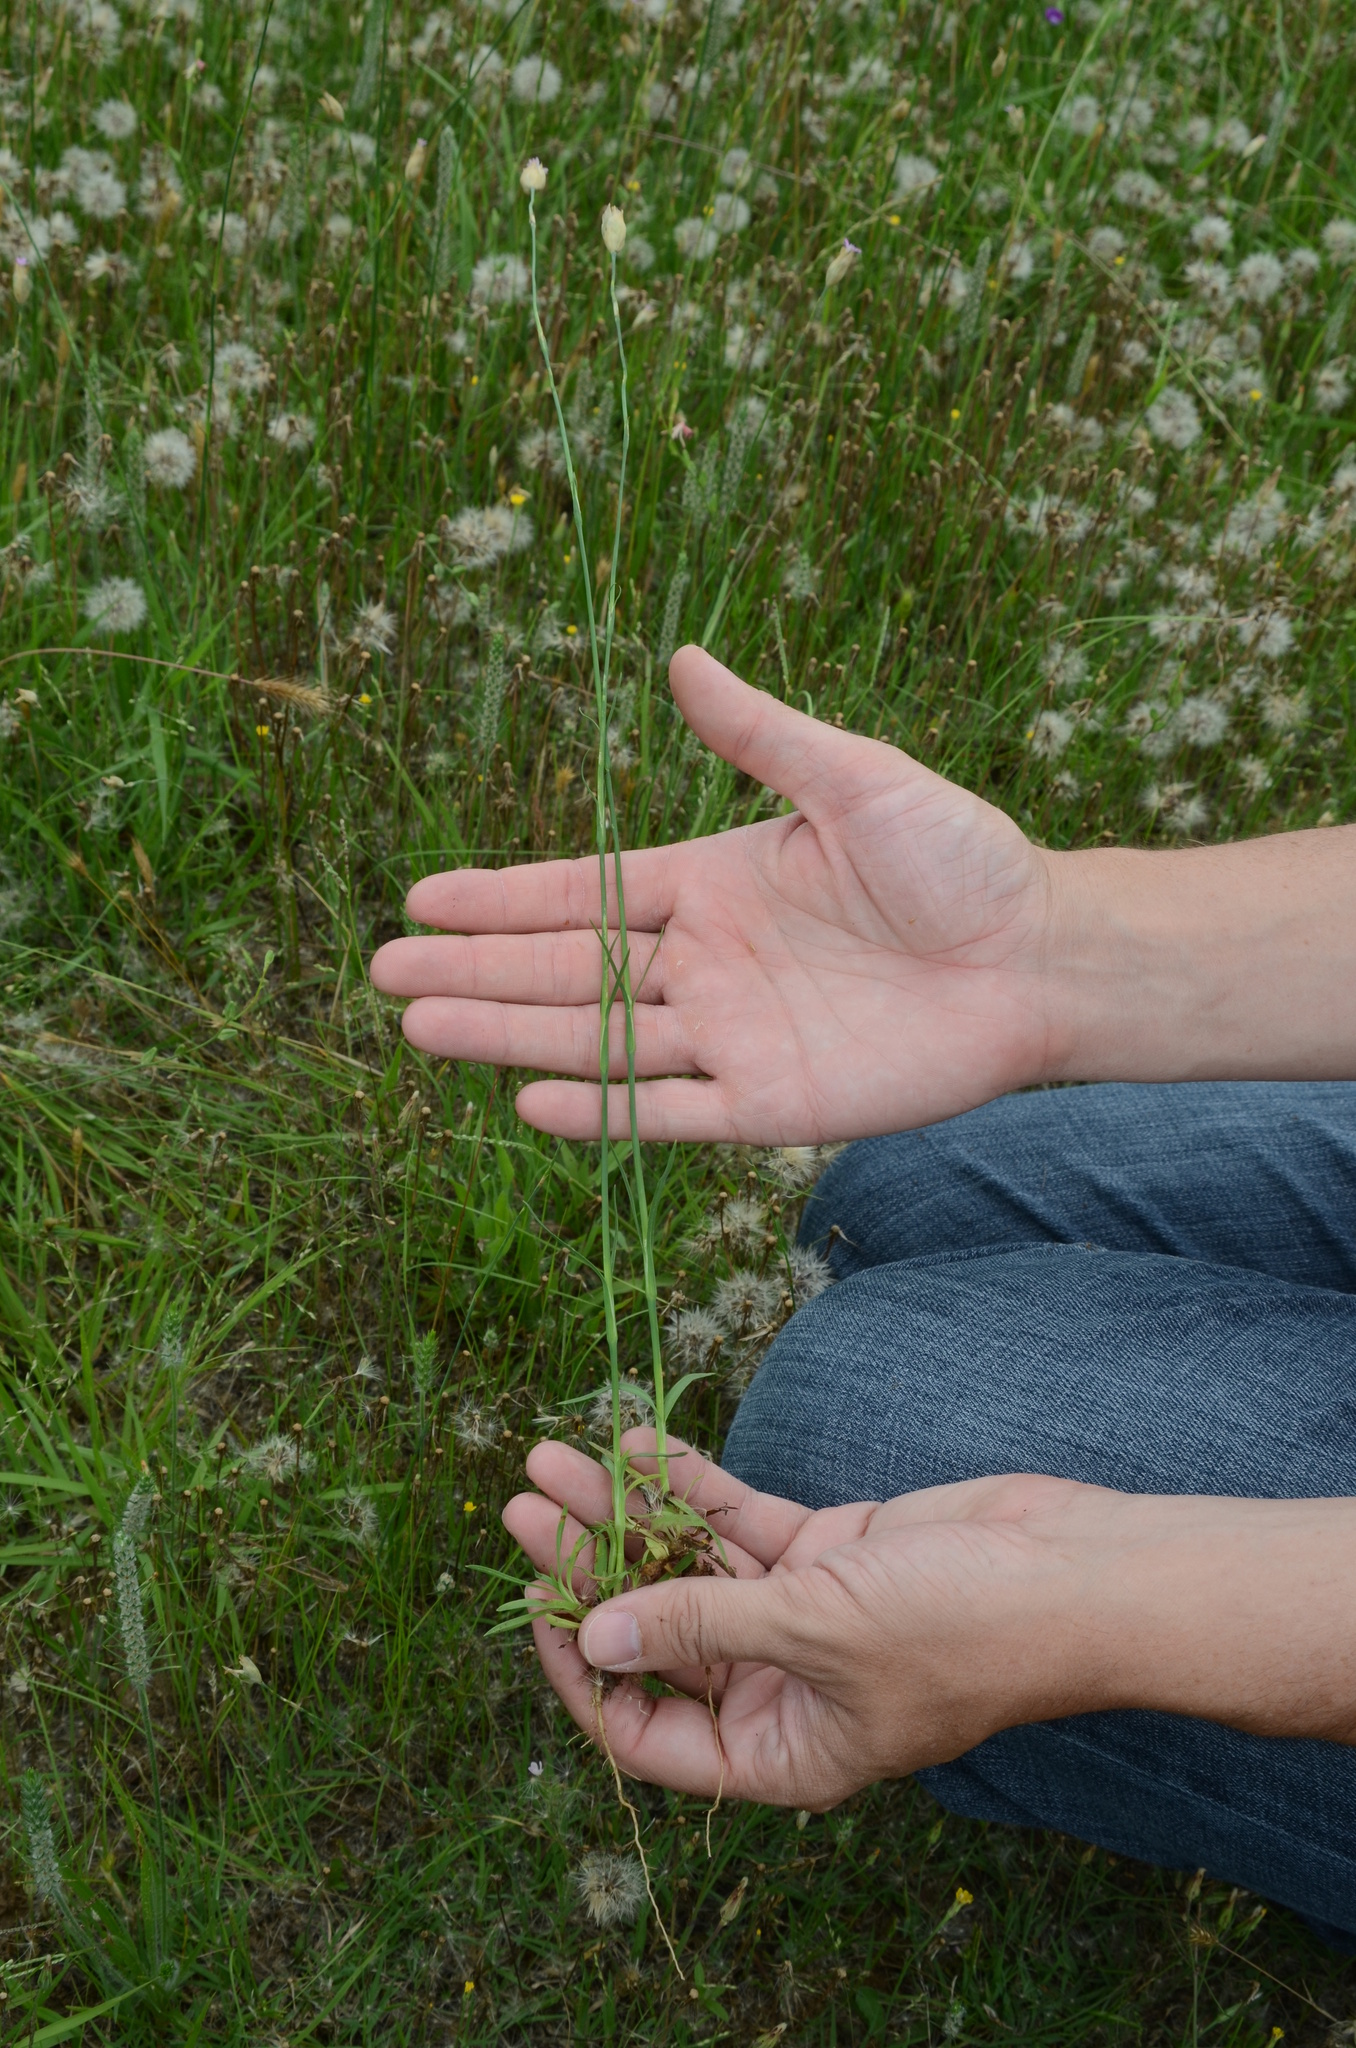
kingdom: Plantae
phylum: Tracheophyta
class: Magnoliopsida
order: Caryophyllales
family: Caryophyllaceae
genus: Petrorhagia
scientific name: Petrorhagia dubia
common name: Hairypink
